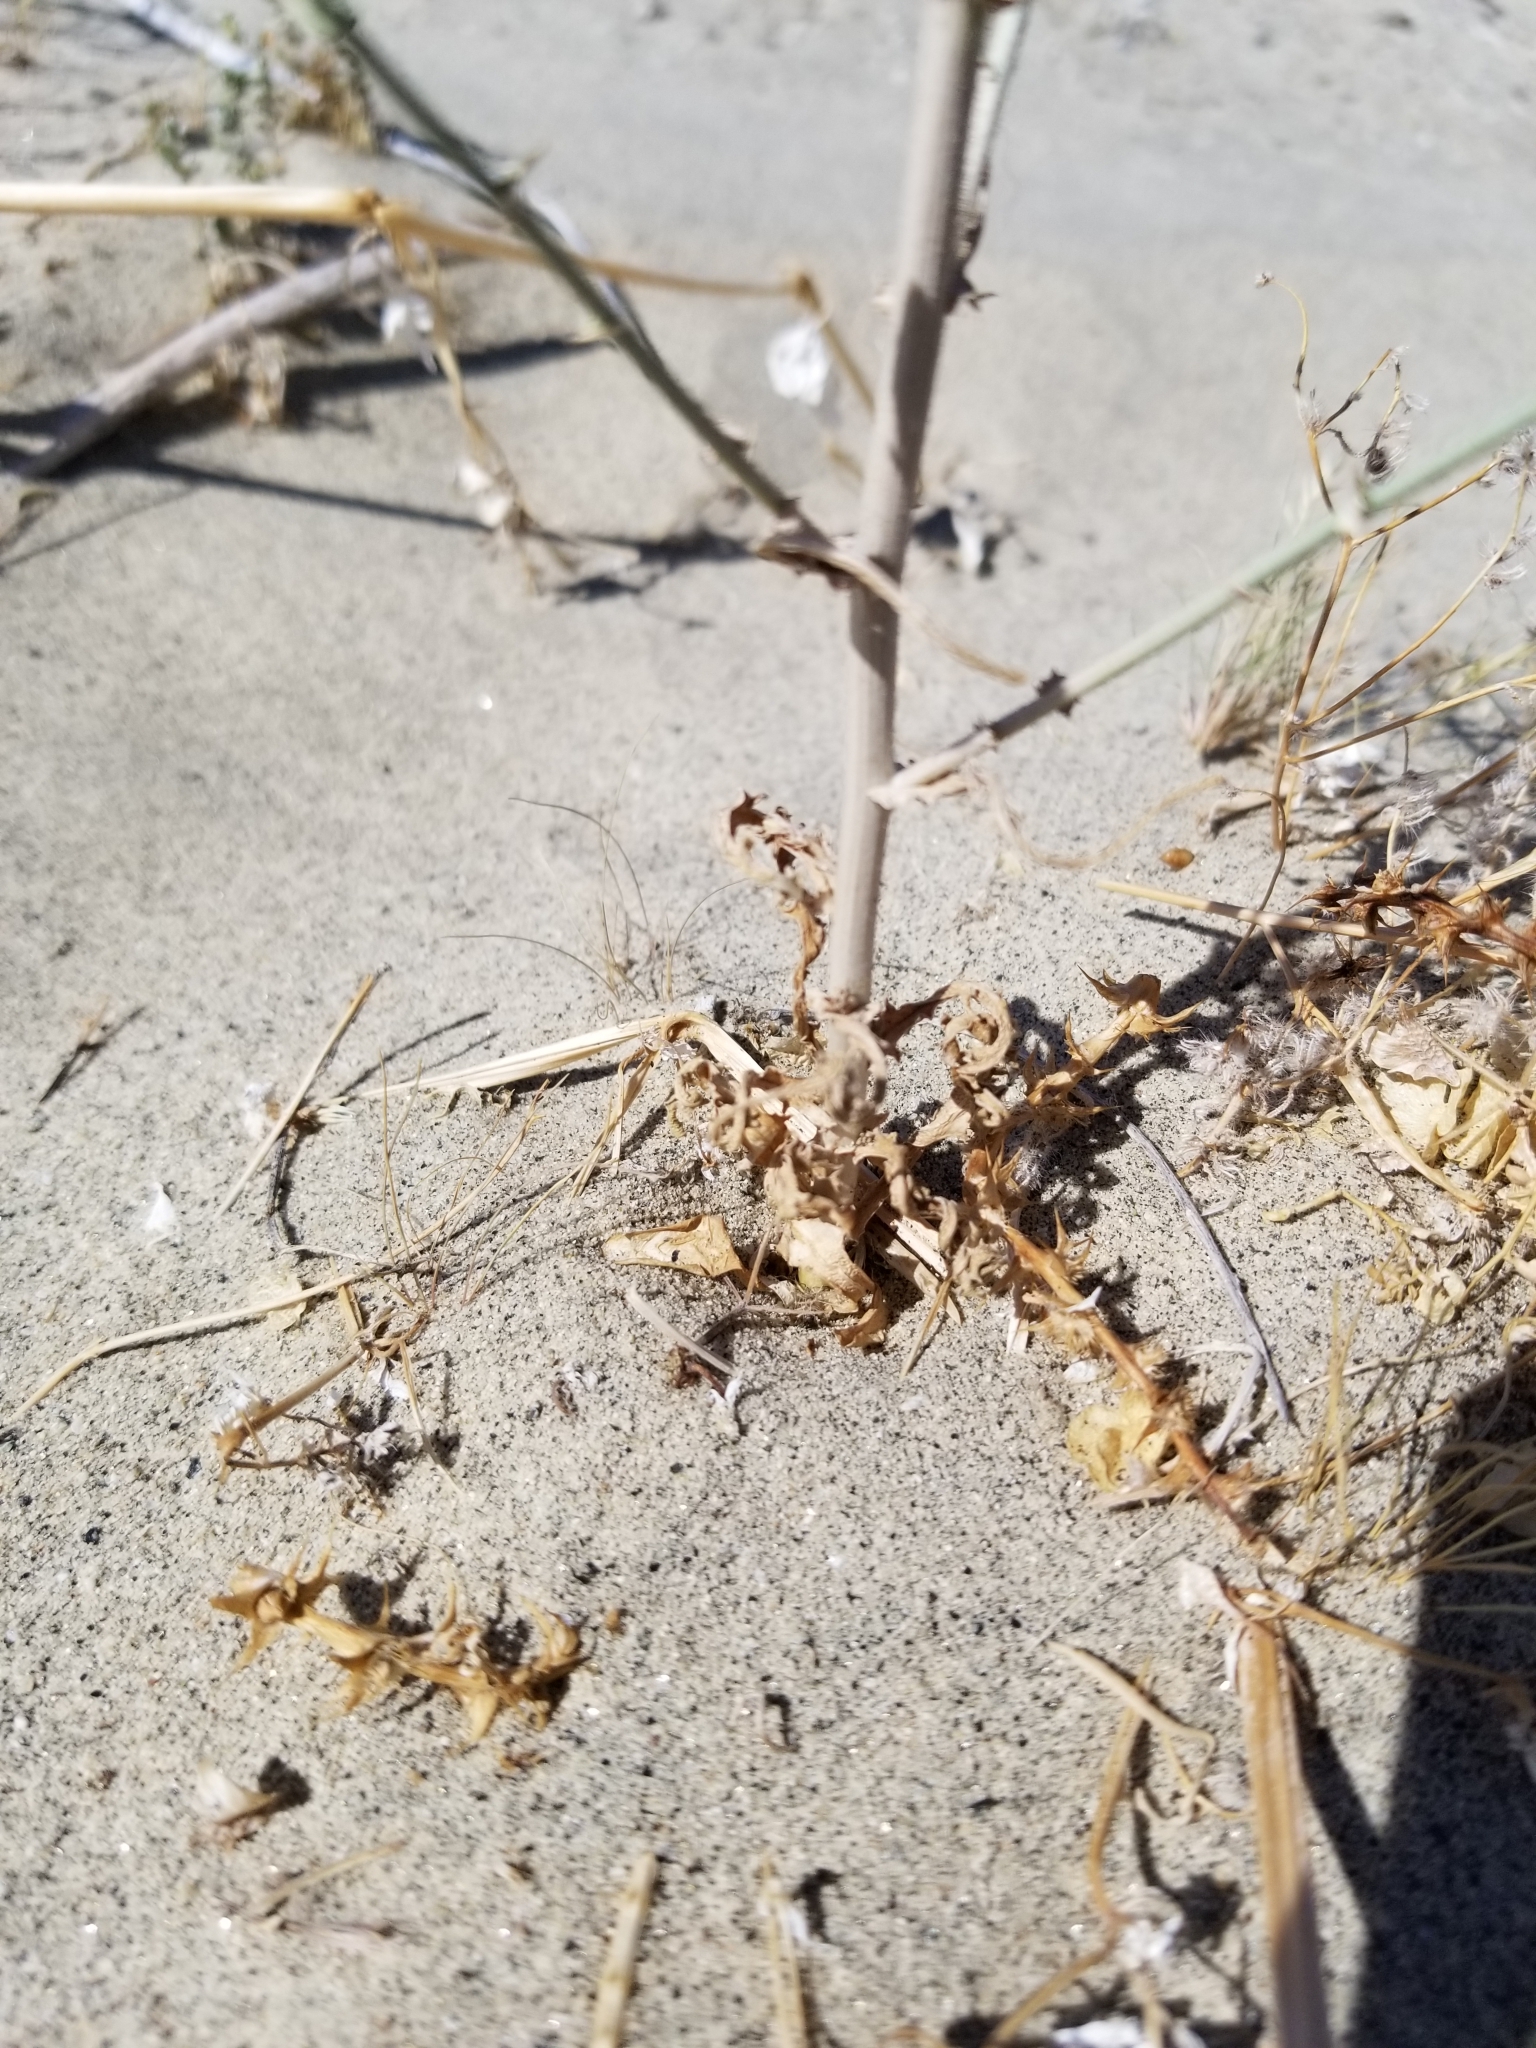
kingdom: Plantae
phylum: Tracheophyta
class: Magnoliopsida
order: Asterales
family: Asteraceae
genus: Stephanomeria
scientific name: Stephanomeria exigua
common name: Small wirelettuce
